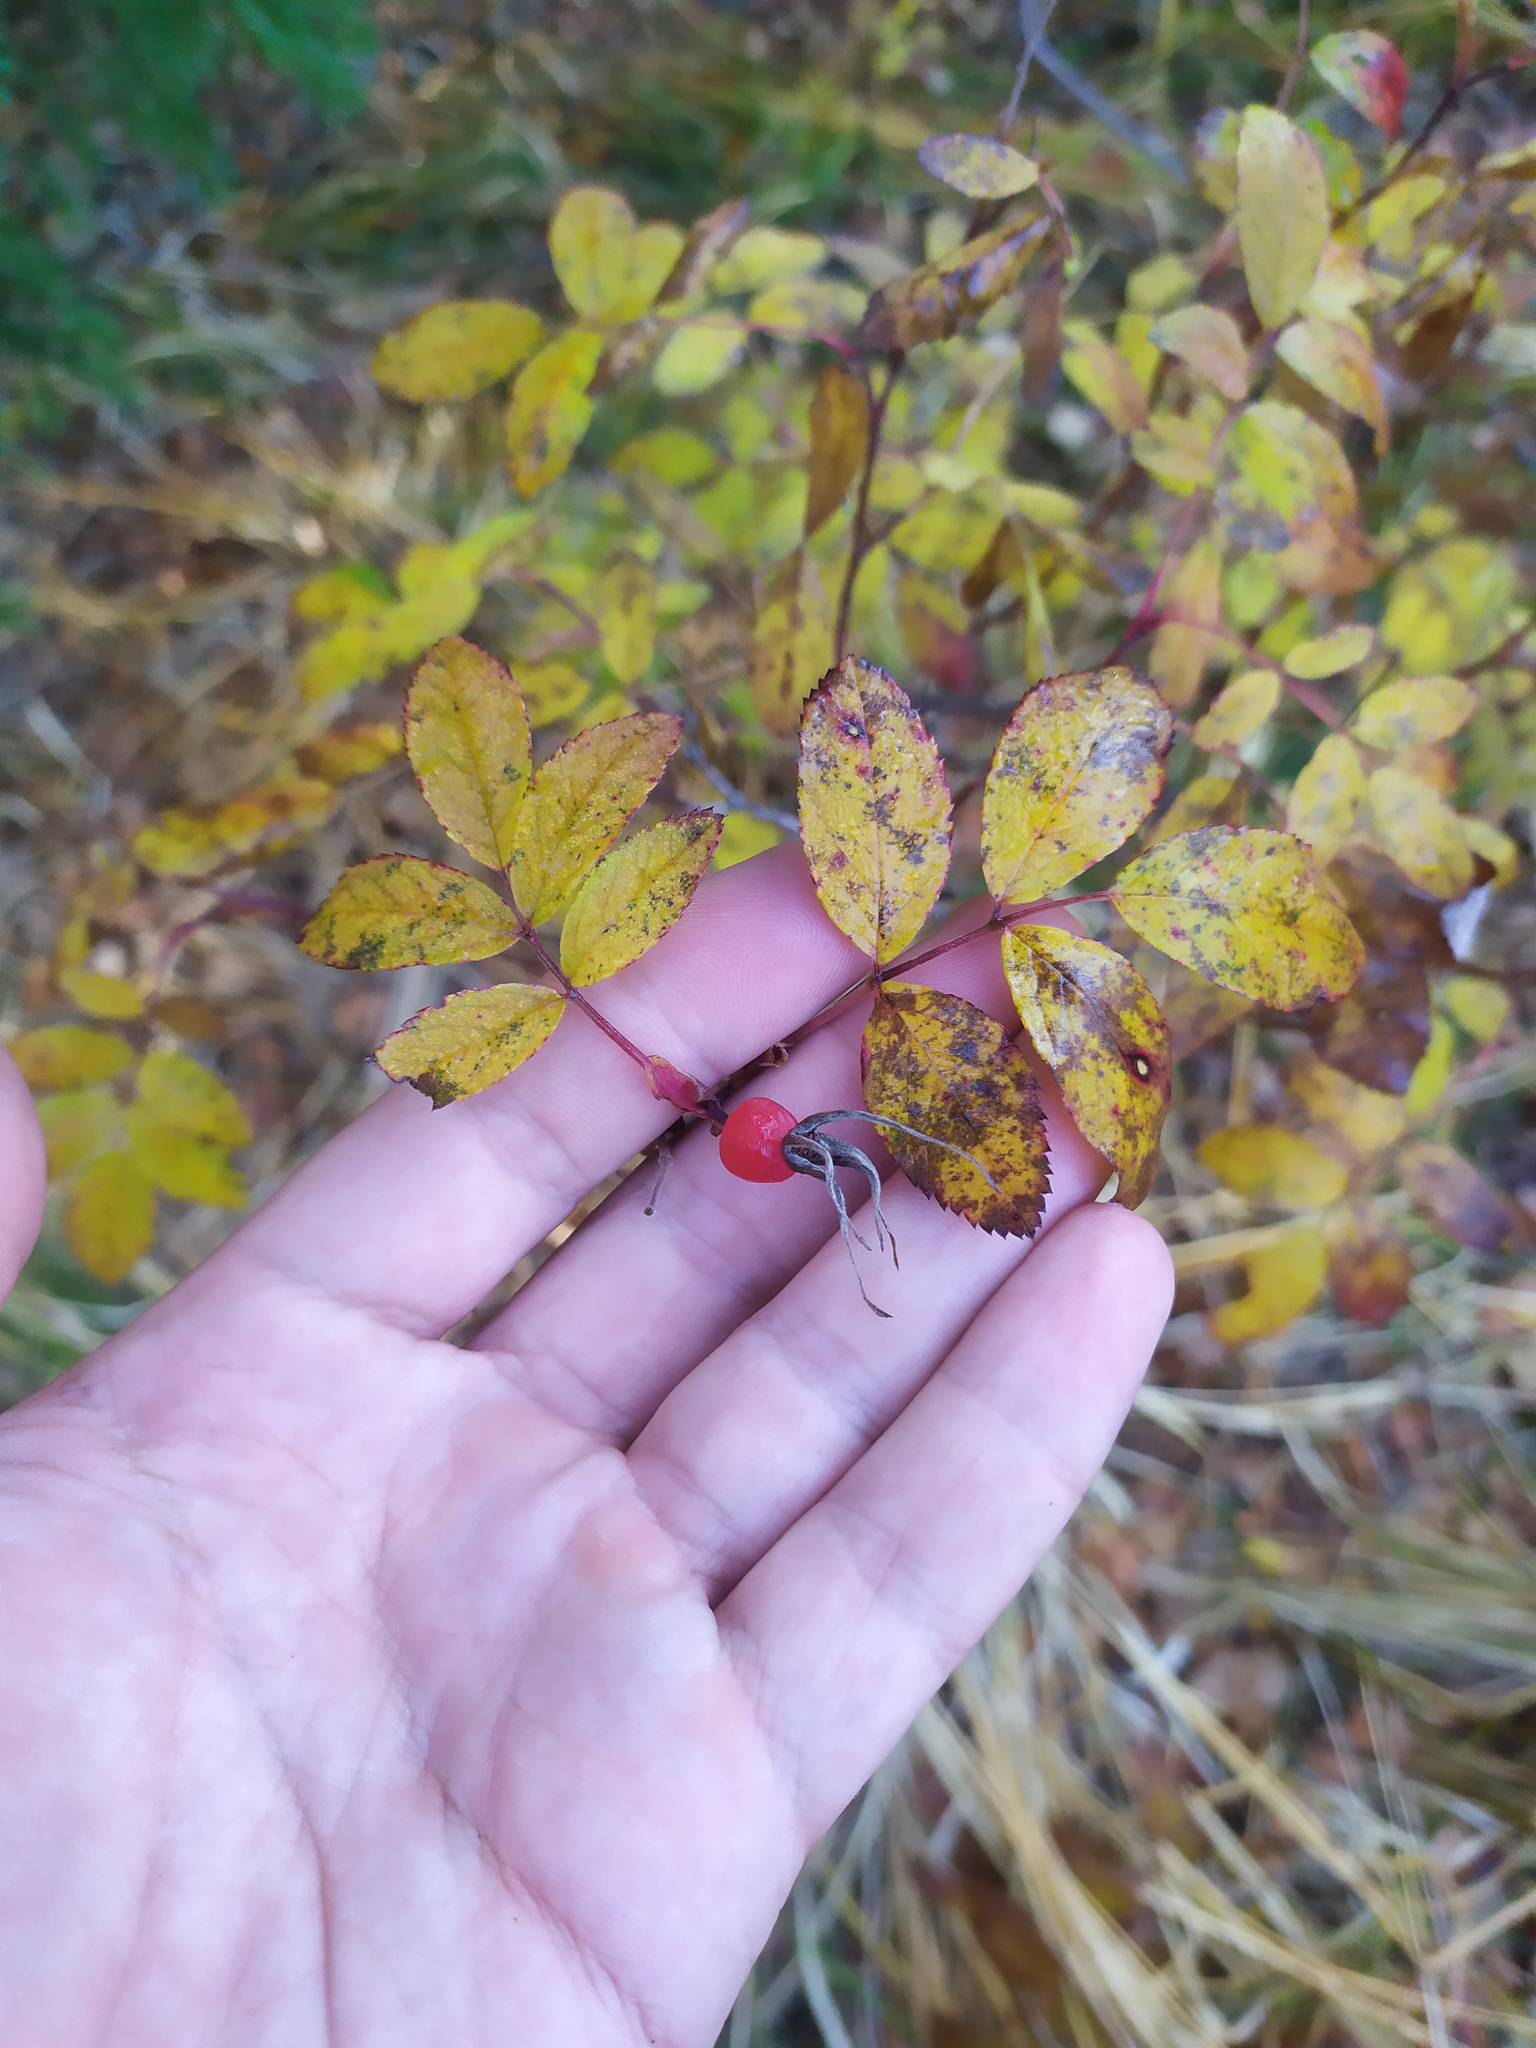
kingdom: Plantae
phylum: Tracheophyta
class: Magnoliopsida
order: Rosales
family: Rosaceae
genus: Rosa
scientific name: Rosa
